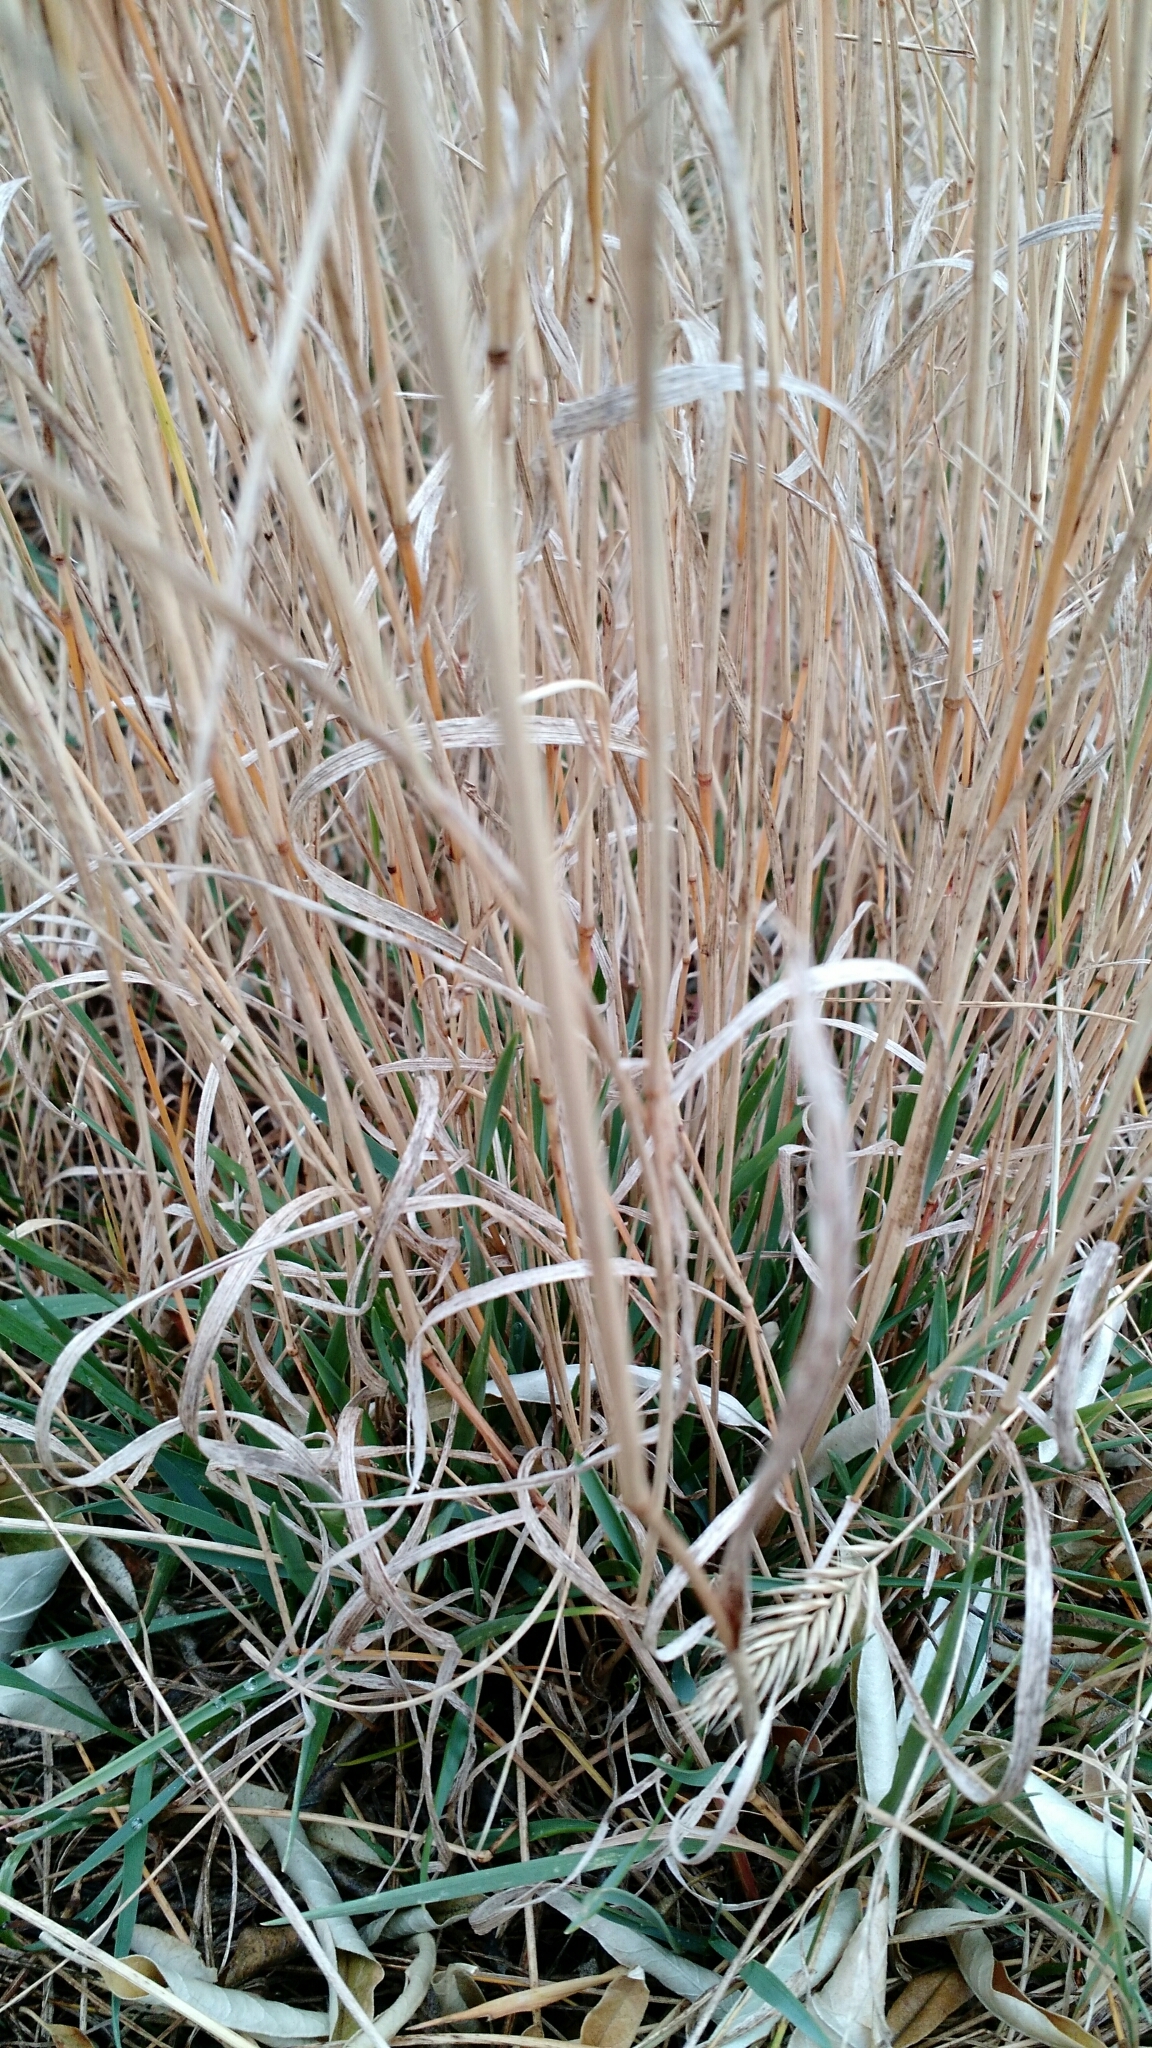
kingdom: Plantae
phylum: Tracheophyta
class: Liliopsida
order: Poales
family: Poaceae
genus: Agropyron
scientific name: Agropyron cristatum
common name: Crested wheatgrass
